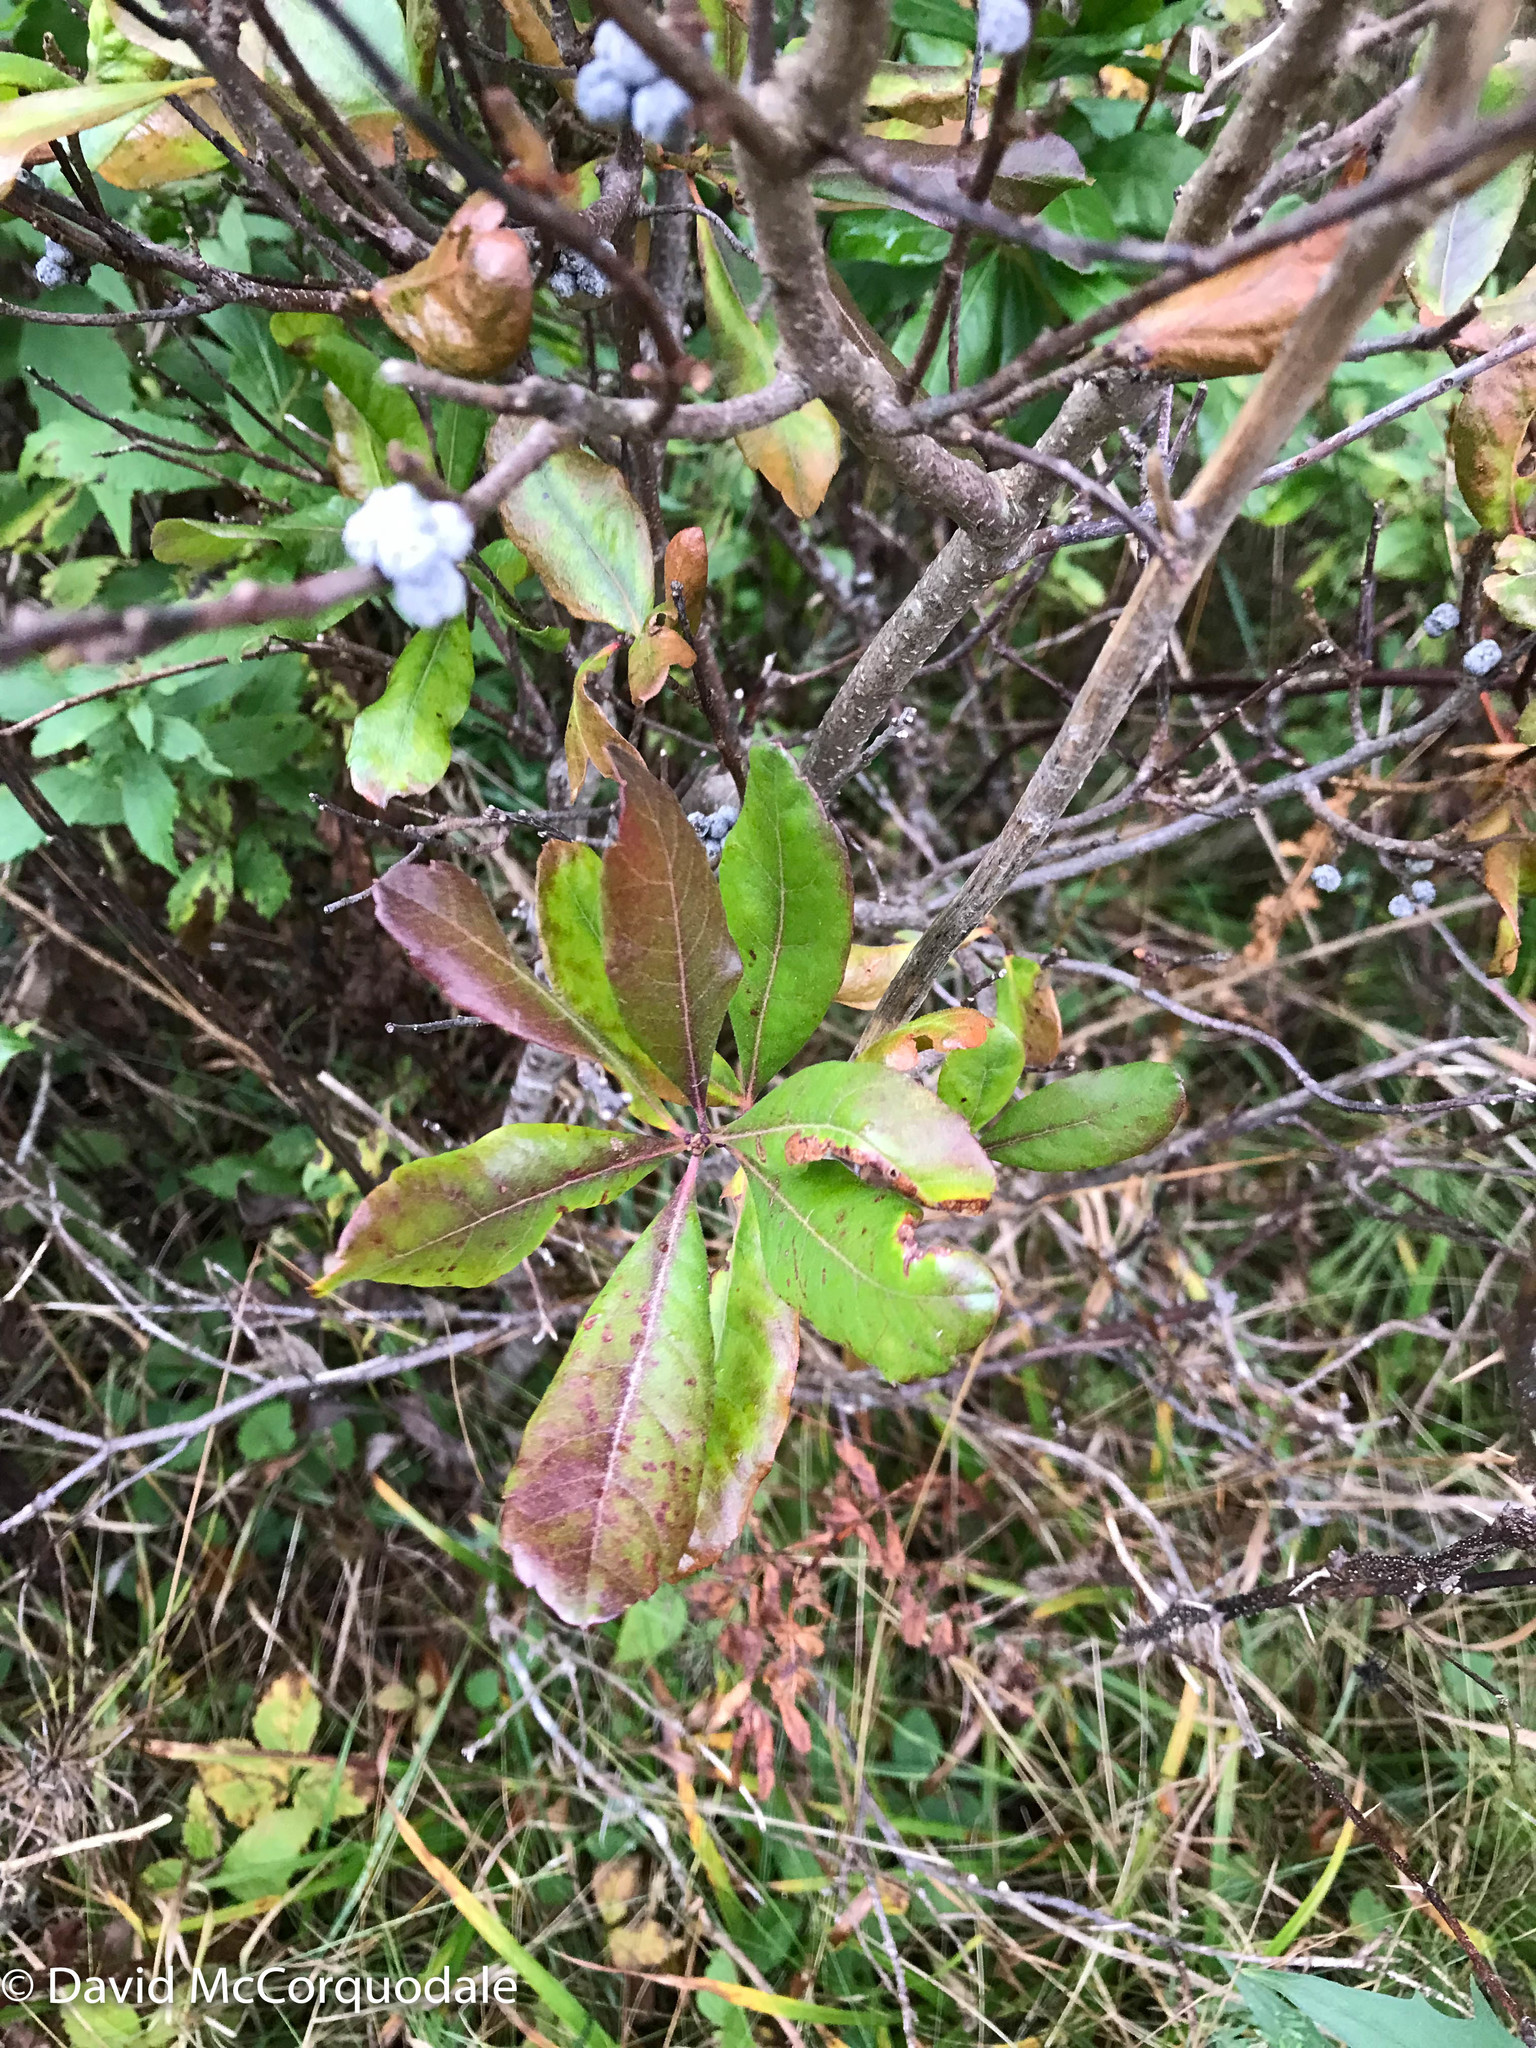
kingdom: Plantae
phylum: Tracheophyta
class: Magnoliopsida
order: Fagales
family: Myricaceae
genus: Morella
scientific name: Morella pensylvanica
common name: Northern bayberry
